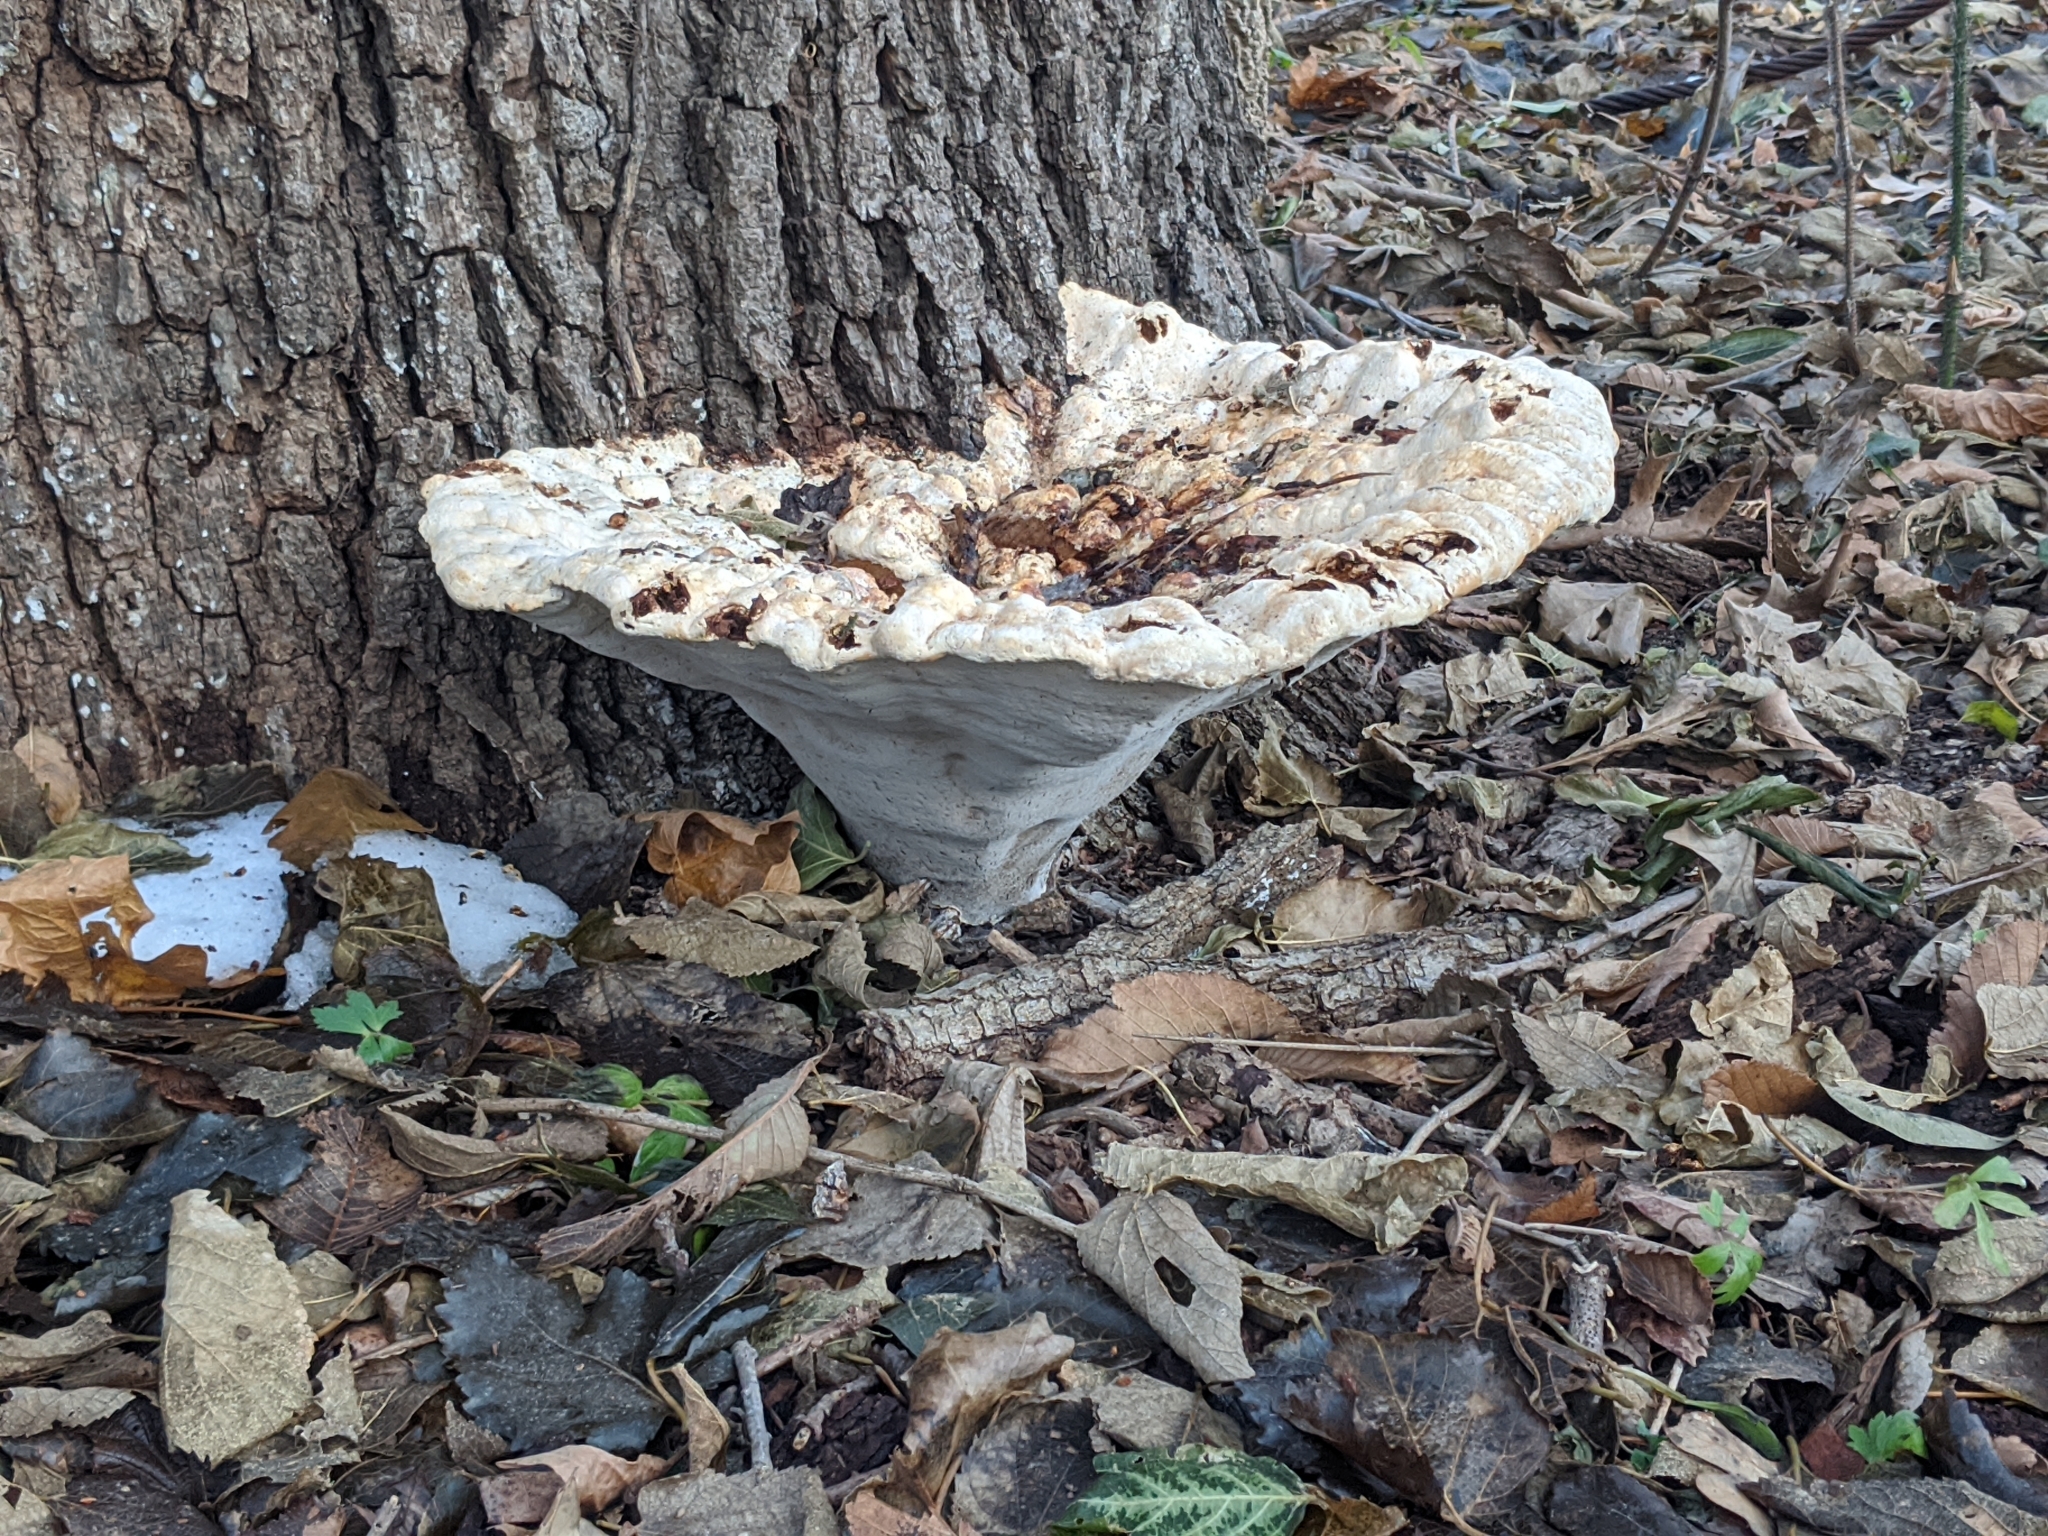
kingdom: Fungi
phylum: Basidiomycota
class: Agaricomycetes
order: Hymenochaetales
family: Hymenochaetaceae
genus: Pseudoinonotus
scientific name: Pseudoinonotus dryadeus
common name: Oak bracket
